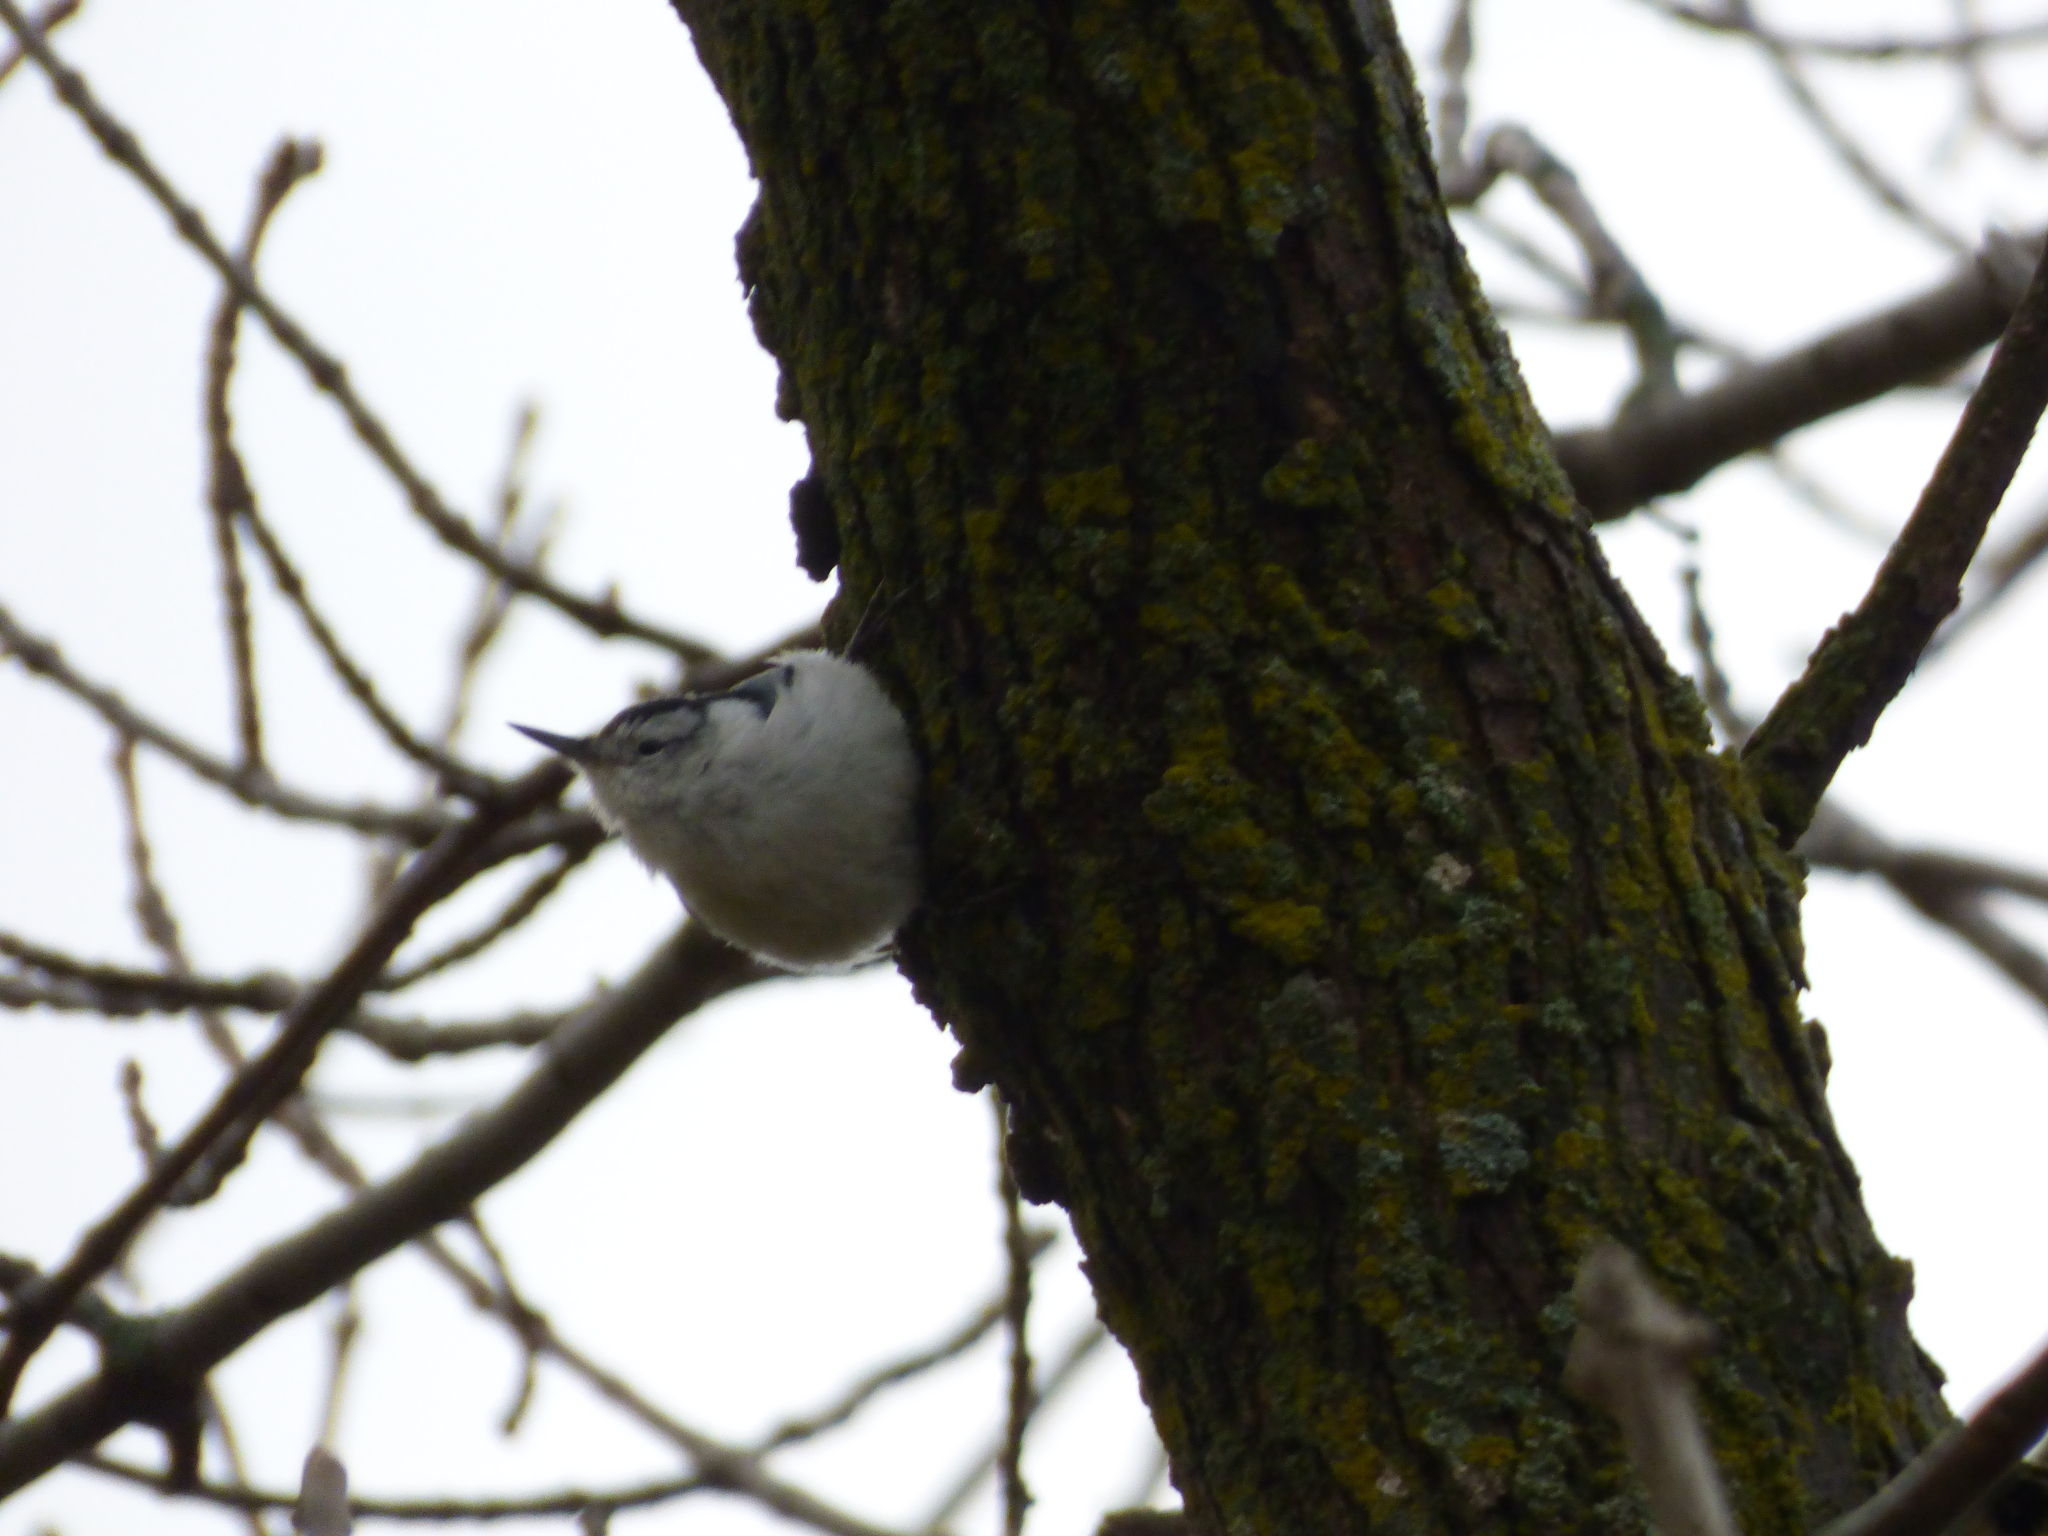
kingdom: Animalia
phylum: Chordata
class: Aves
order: Passeriformes
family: Sittidae
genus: Sitta
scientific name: Sitta carolinensis
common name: White-breasted nuthatch
